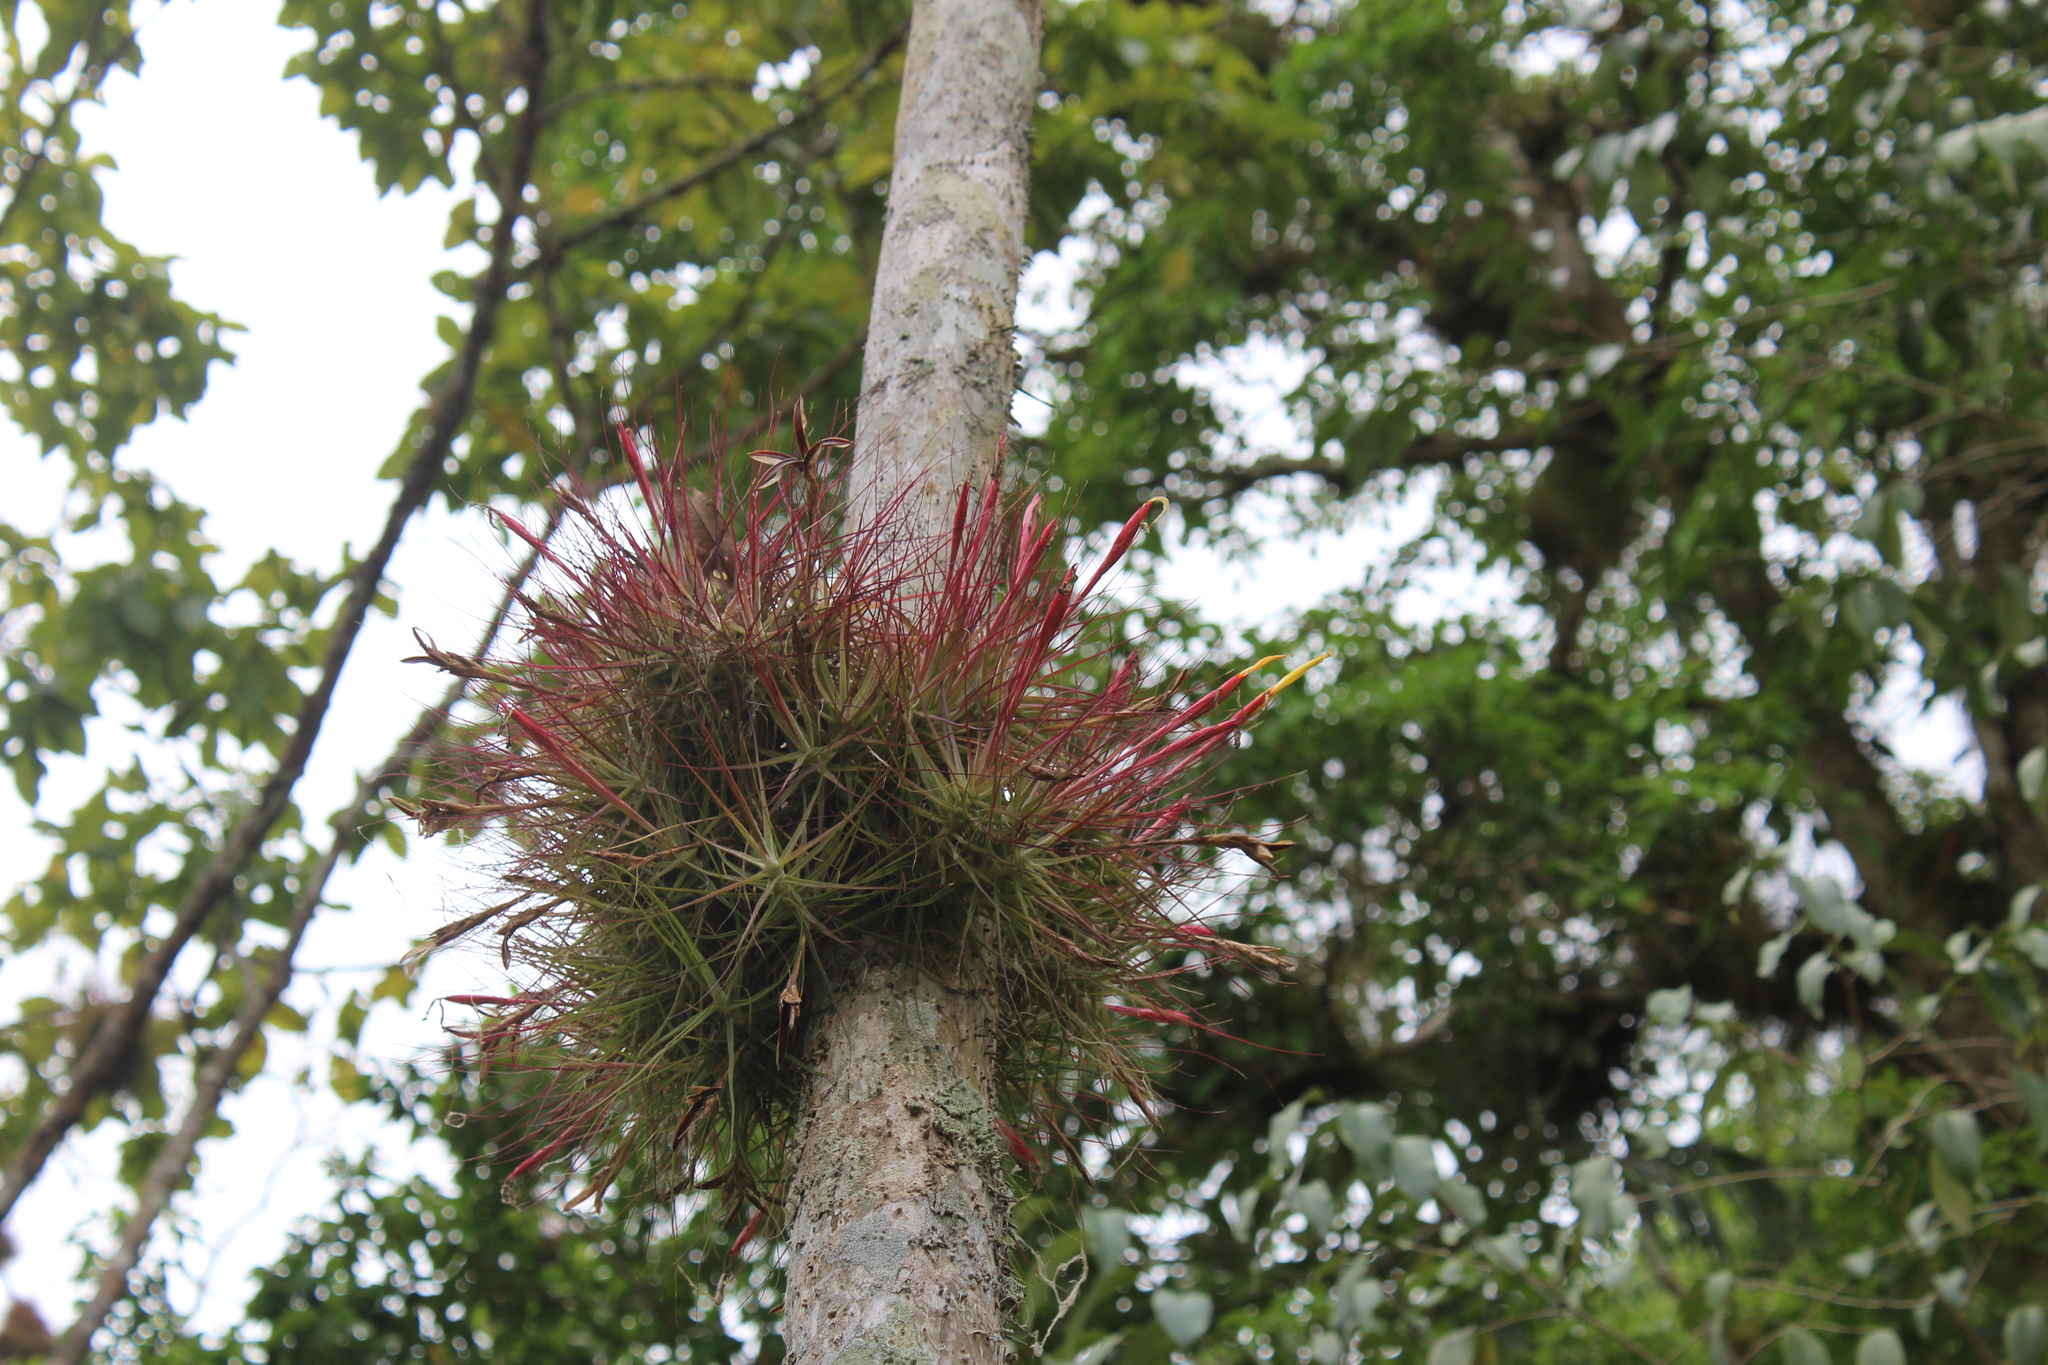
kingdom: Plantae
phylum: Tracheophyta
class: Liliopsida
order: Poales
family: Bromeliaceae
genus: Tillandsia
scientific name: Tillandsia schiedeana
